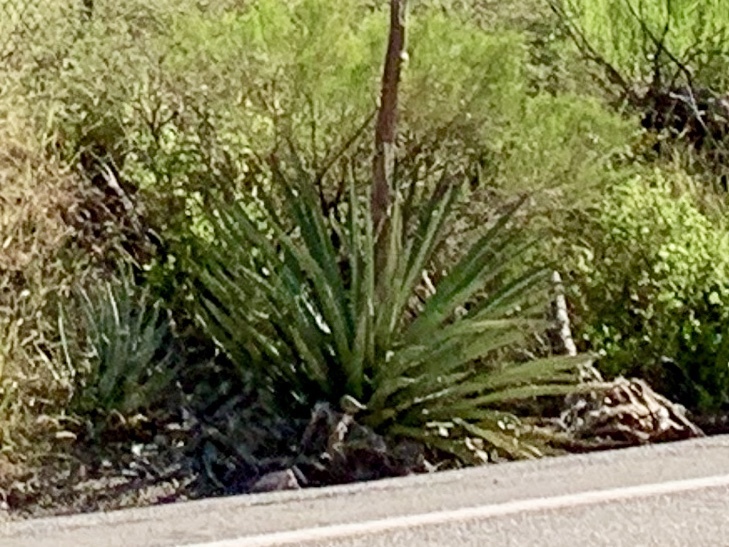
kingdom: Plantae
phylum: Tracheophyta
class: Liliopsida
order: Asparagales
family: Asparagaceae
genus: Agave
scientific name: Agave palmeri
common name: Palmer agave
